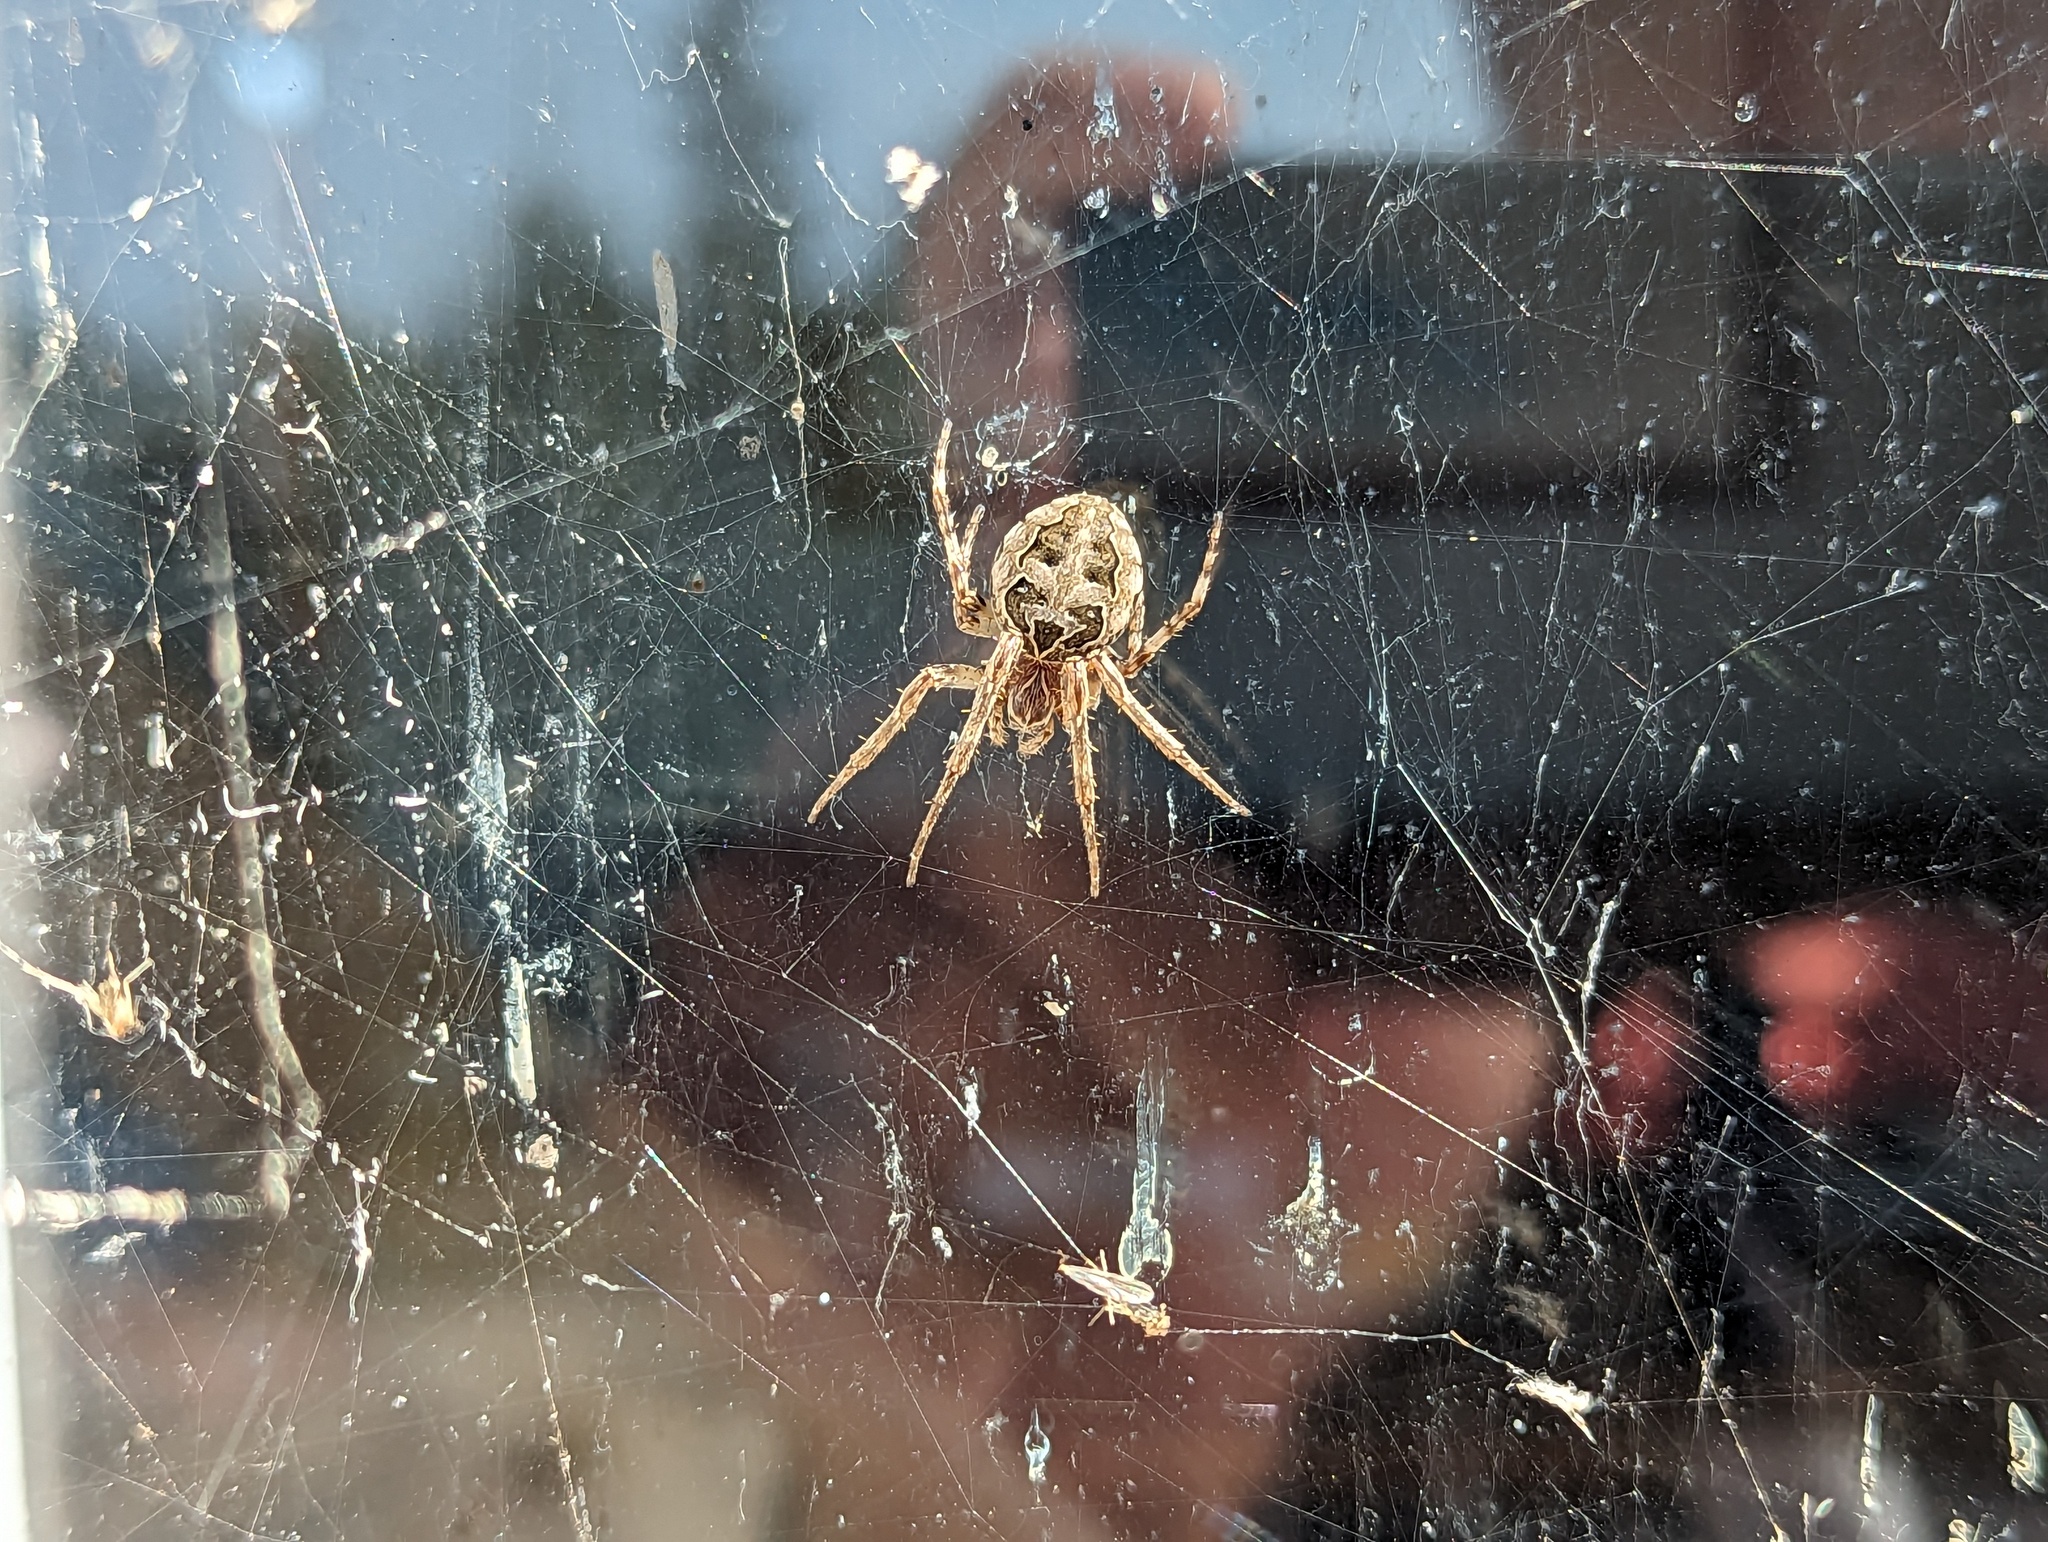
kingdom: Animalia
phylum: Arthropoda
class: Arachnida
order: Araneae
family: Araneidae
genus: Larinioides
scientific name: Larinioides sclopetarius
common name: Bridge orbweaver
